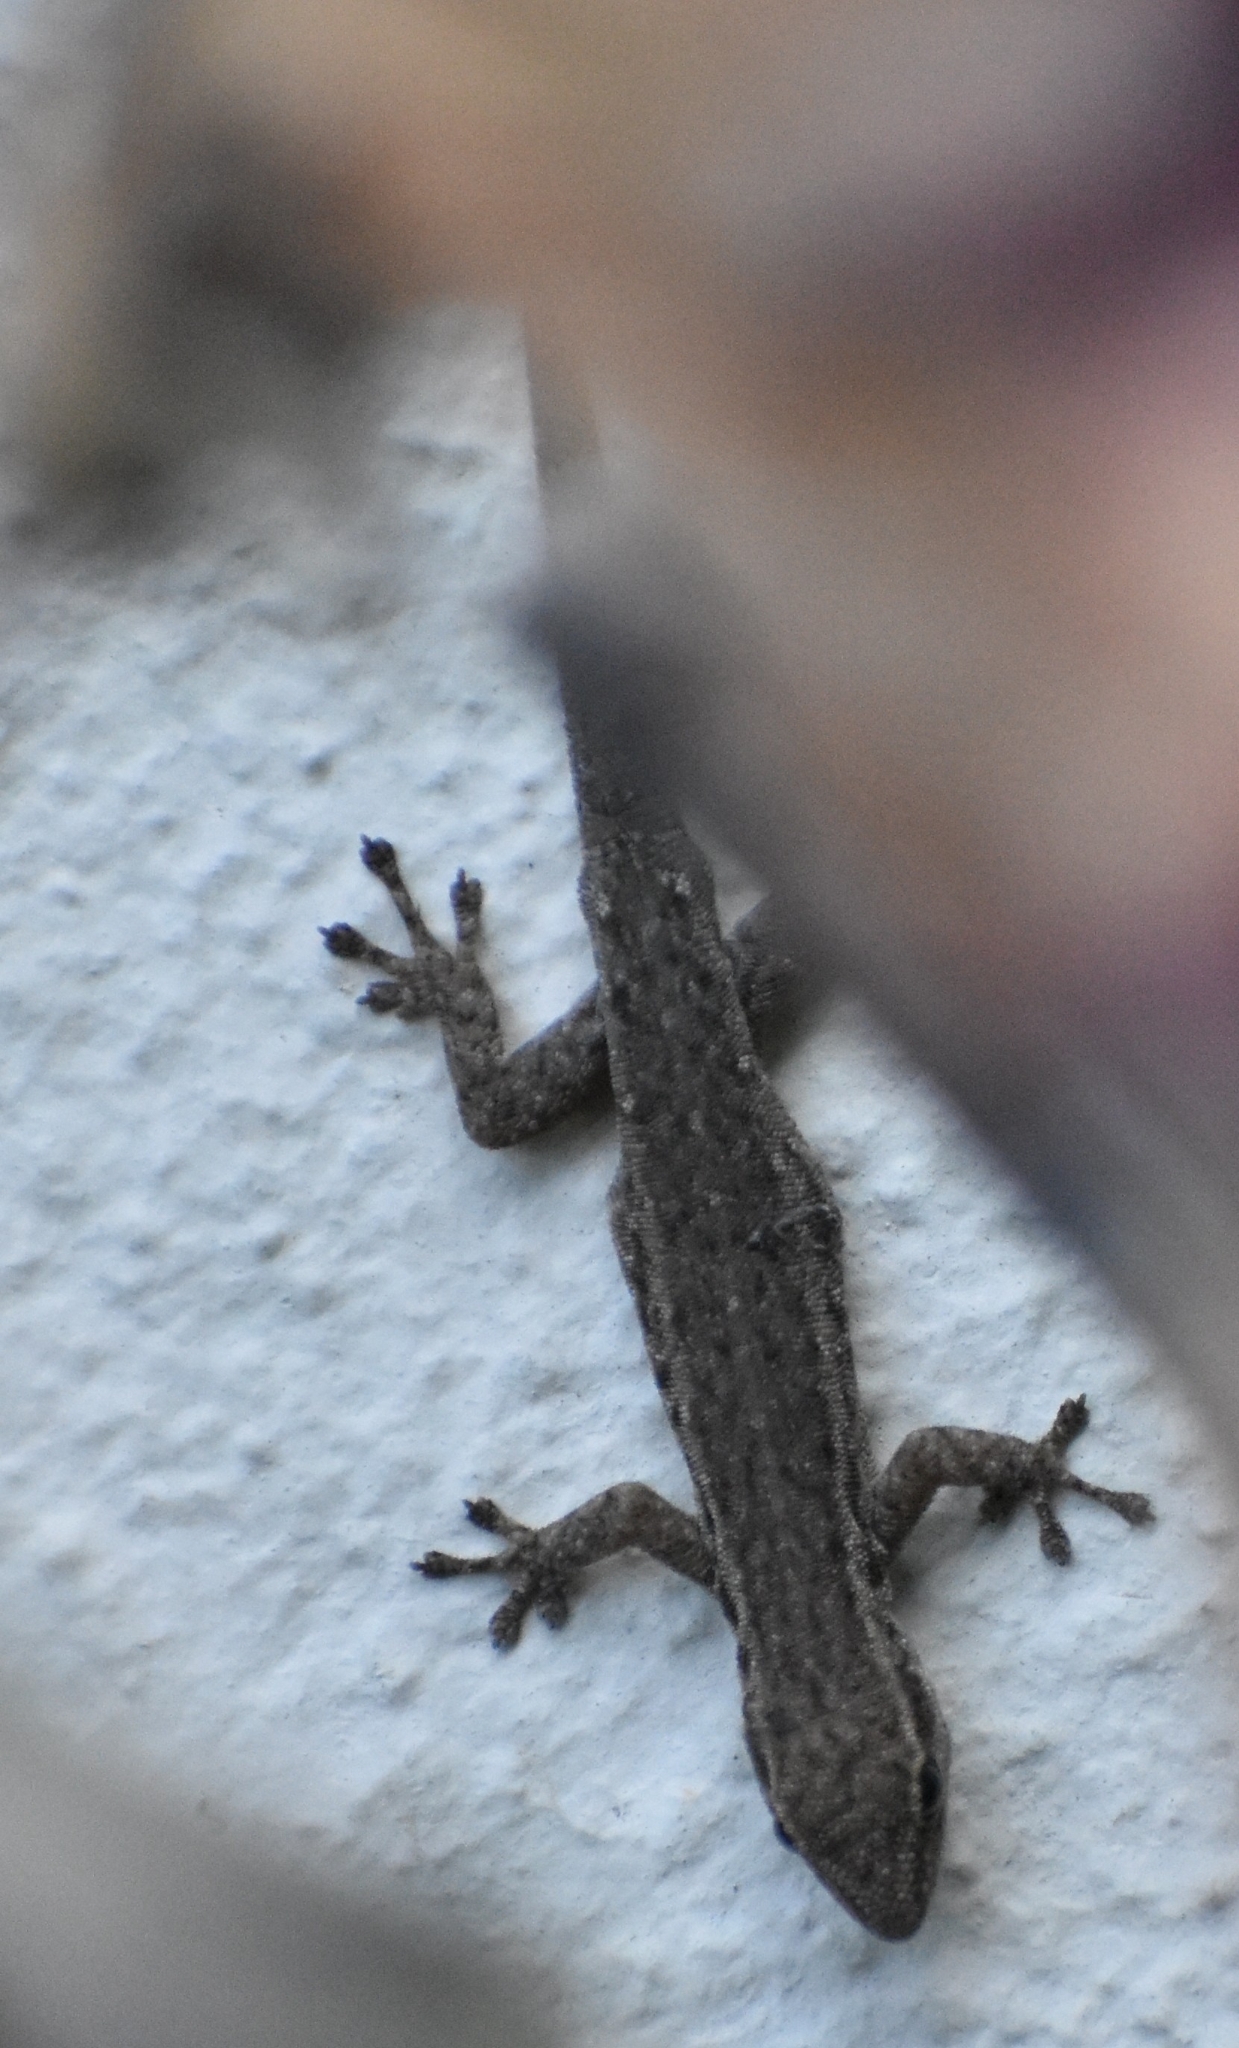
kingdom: Animalia
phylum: Chordata
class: Squamata
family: Gekkonidae
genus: Lygodactylus
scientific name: Lygodactylus capensis
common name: Cape dwarf gecko
